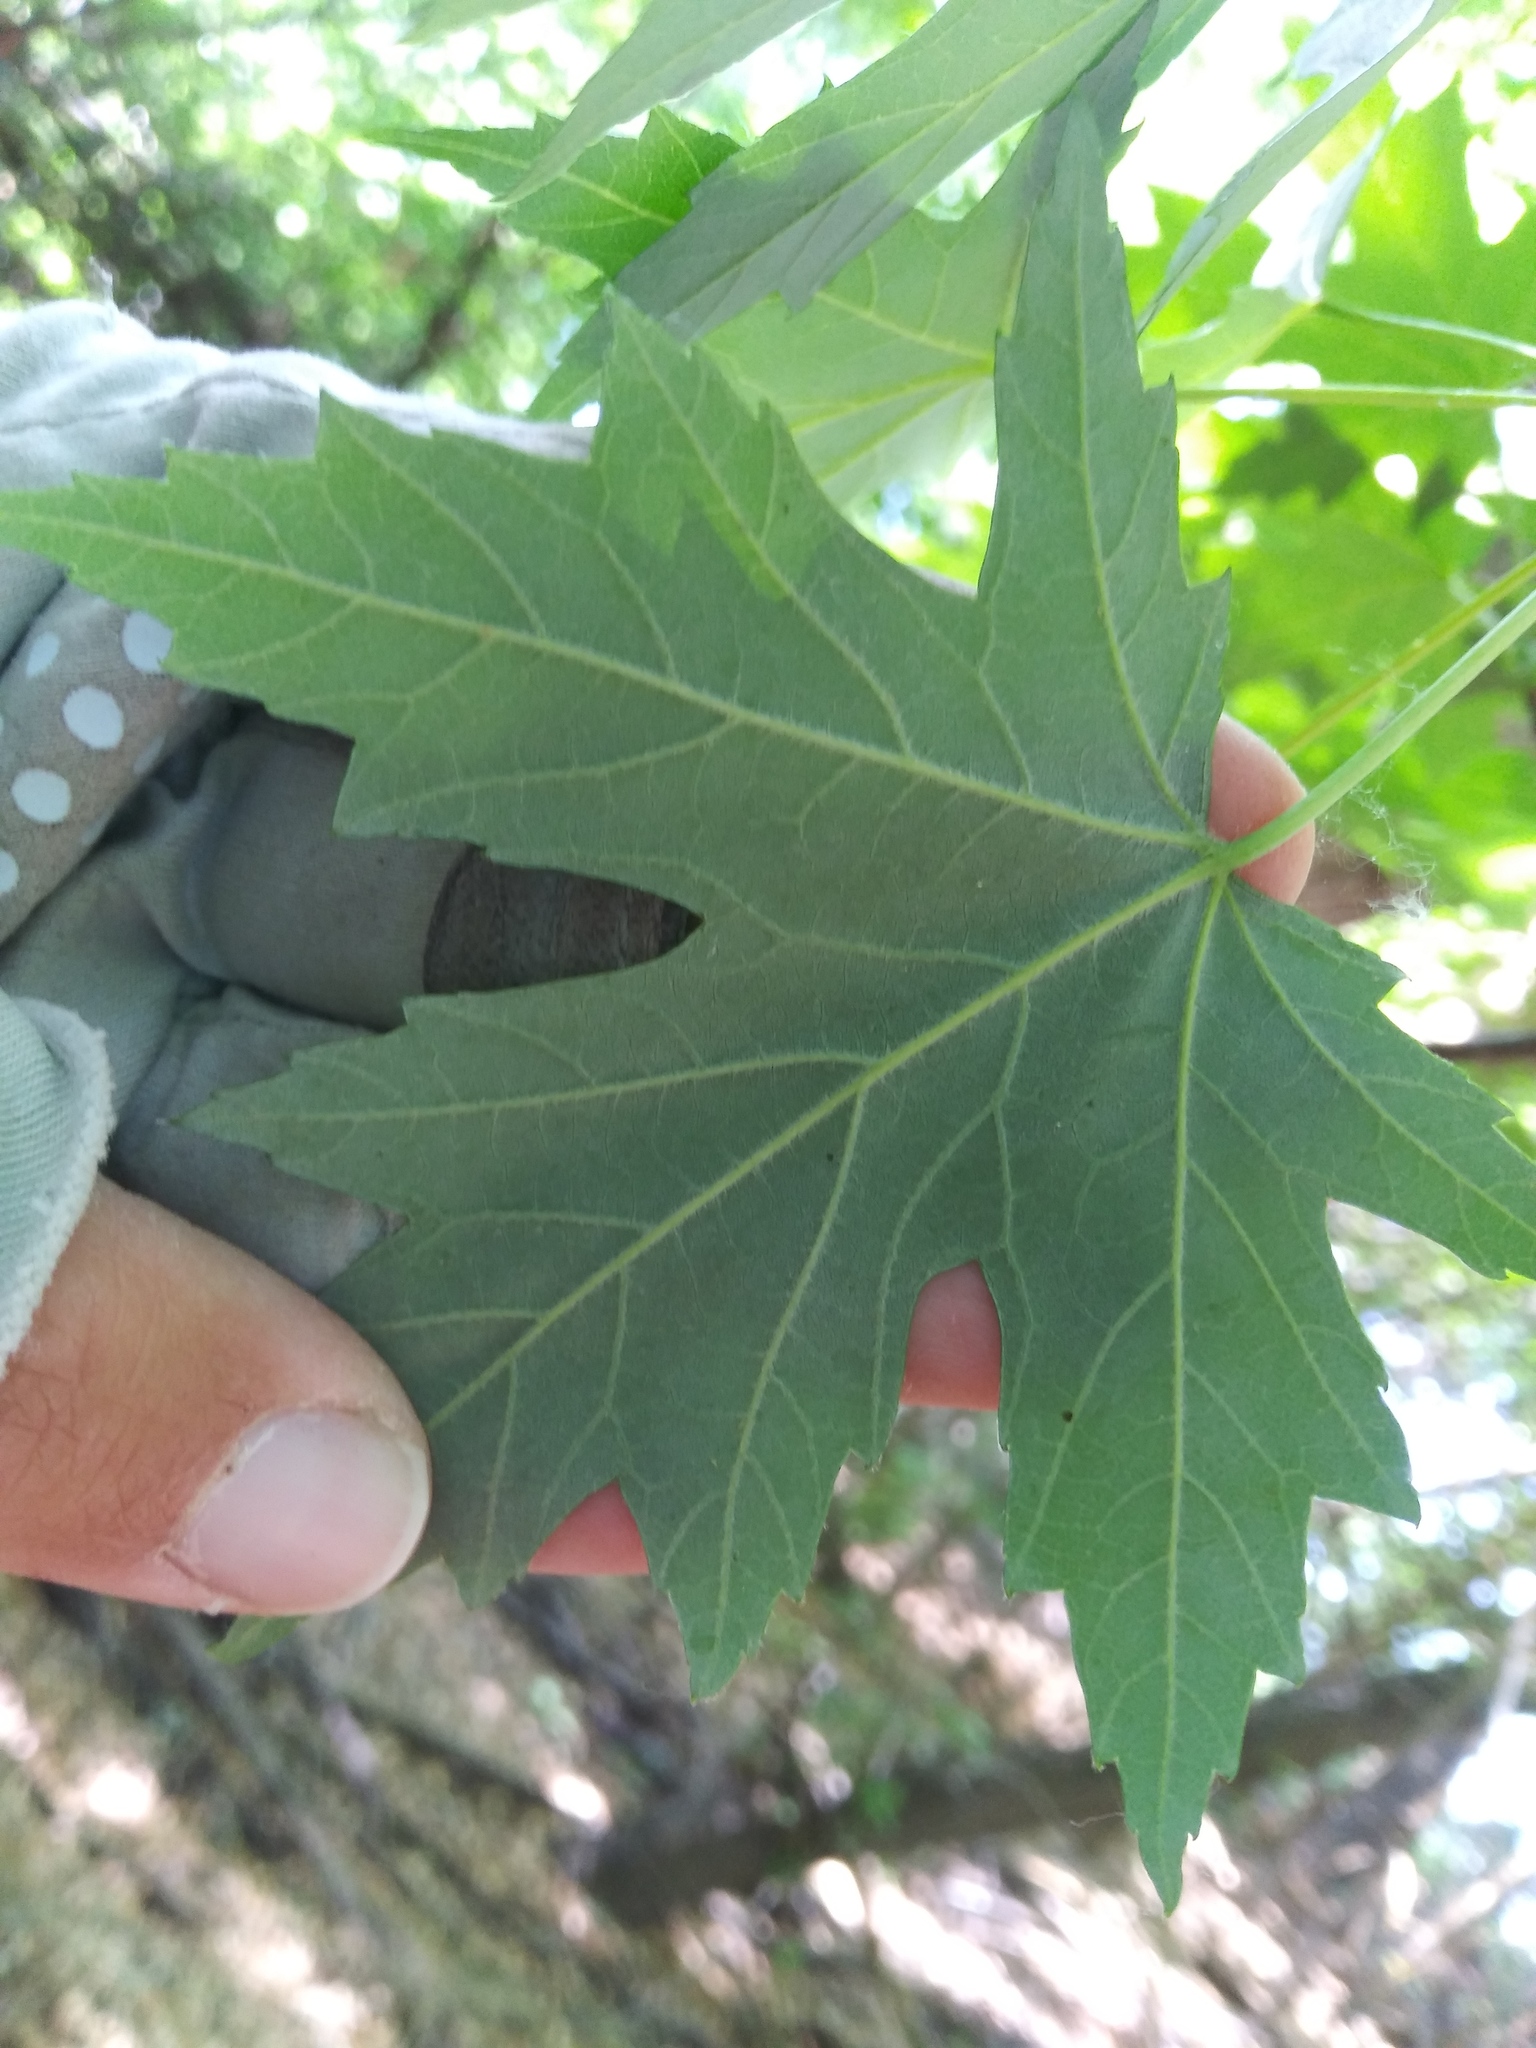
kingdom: Plantae
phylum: Tracheophyta
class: Magnoliopsida
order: Sapindales
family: Sapindaceae
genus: Acer
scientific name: Acer saccharinum
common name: Silver maple
